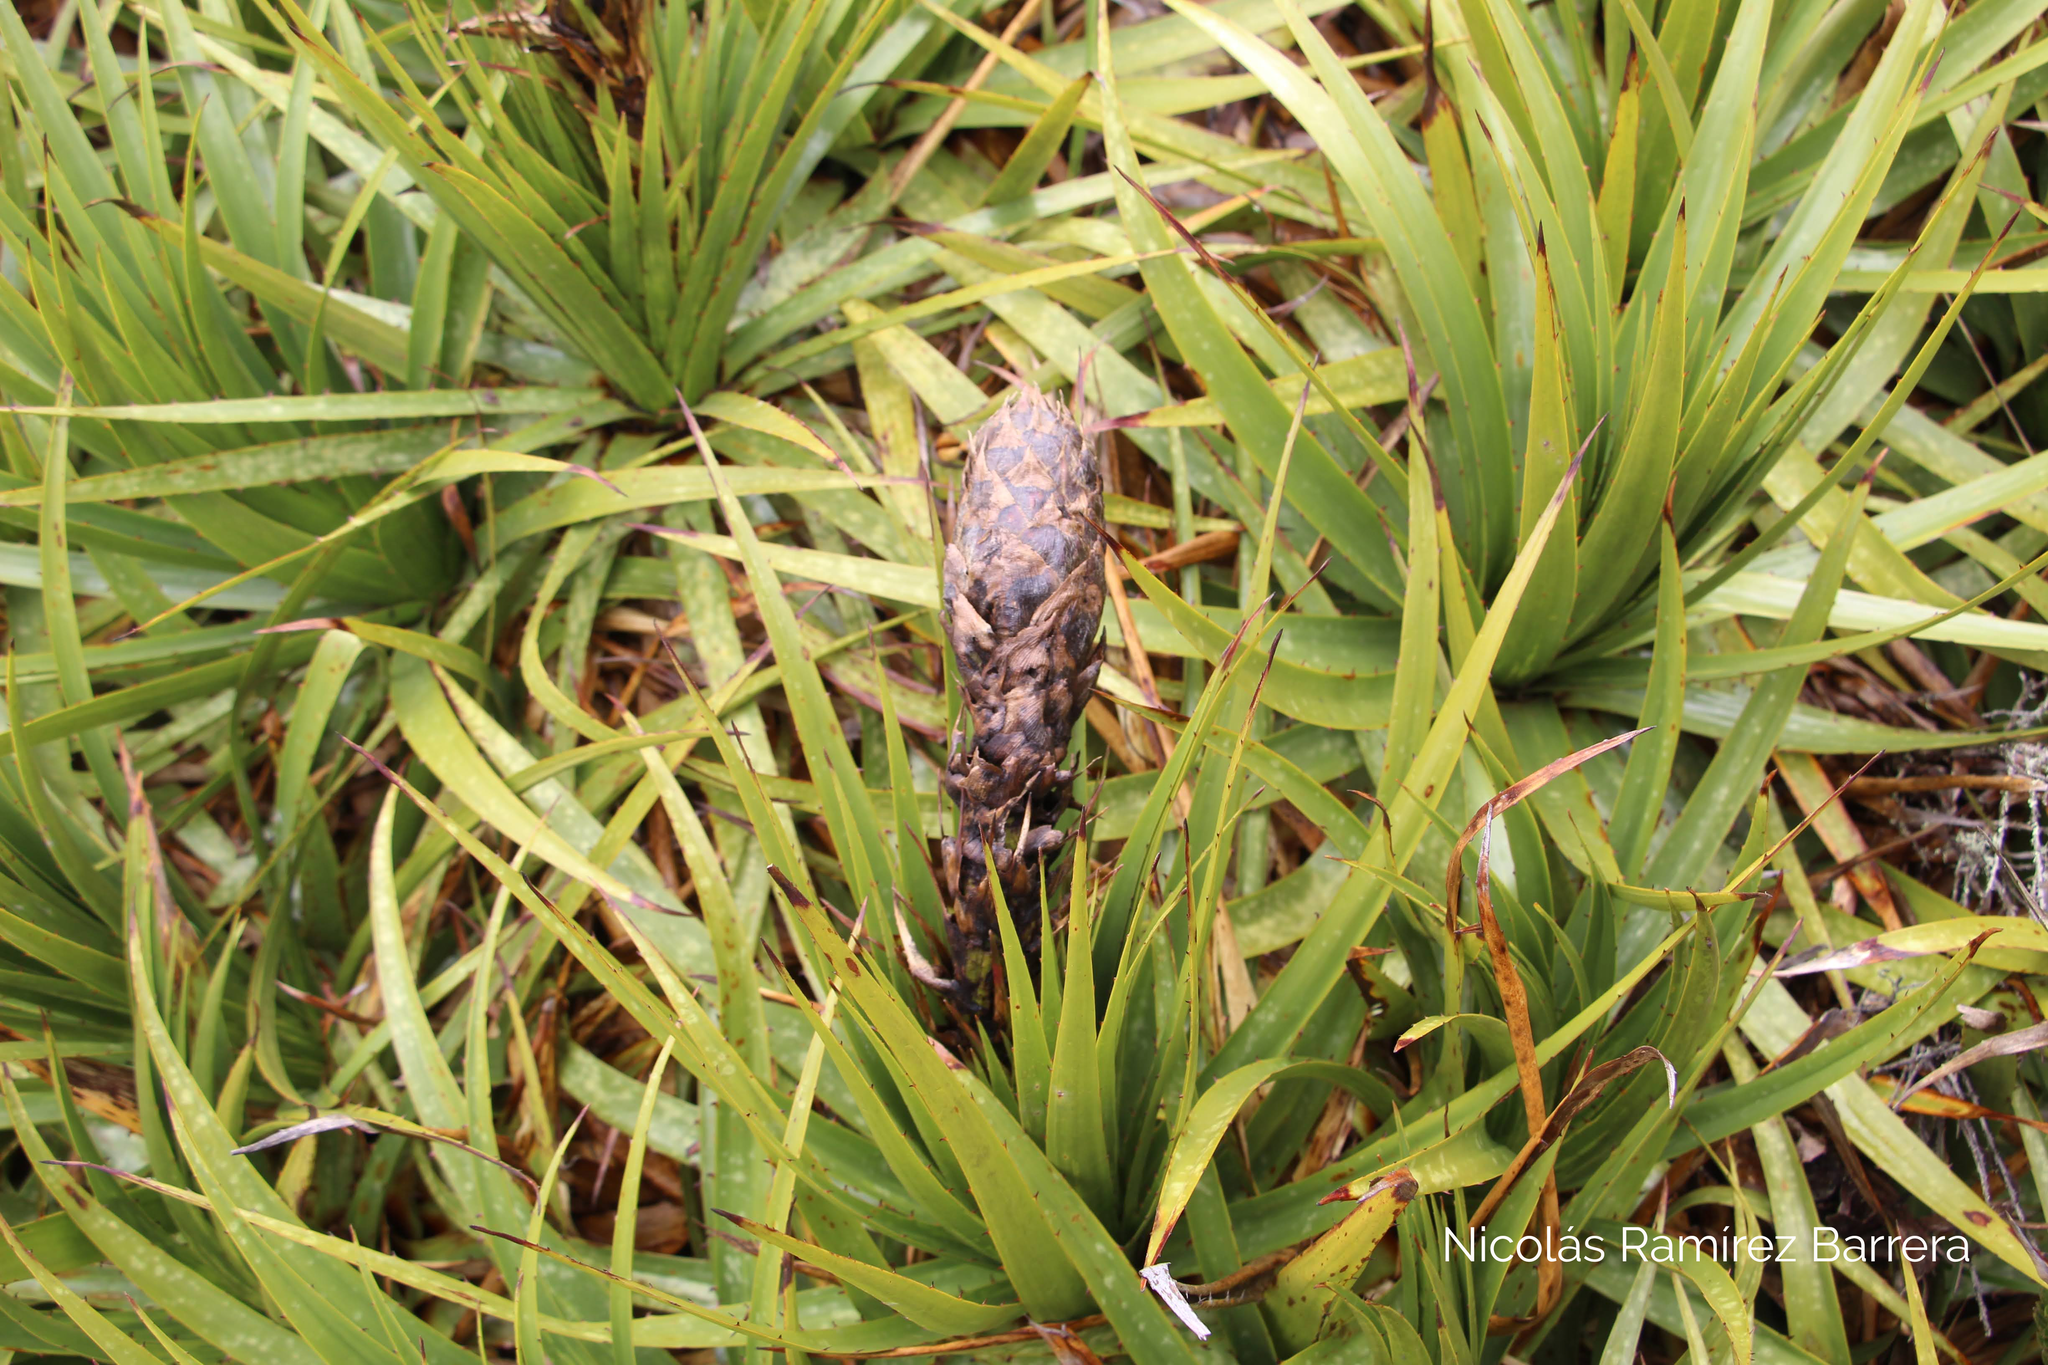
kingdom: Plantae
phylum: Tracheophyta
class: Liliopsida
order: Poales
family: Bromeliaceae
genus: Puya
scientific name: Puya nitida
